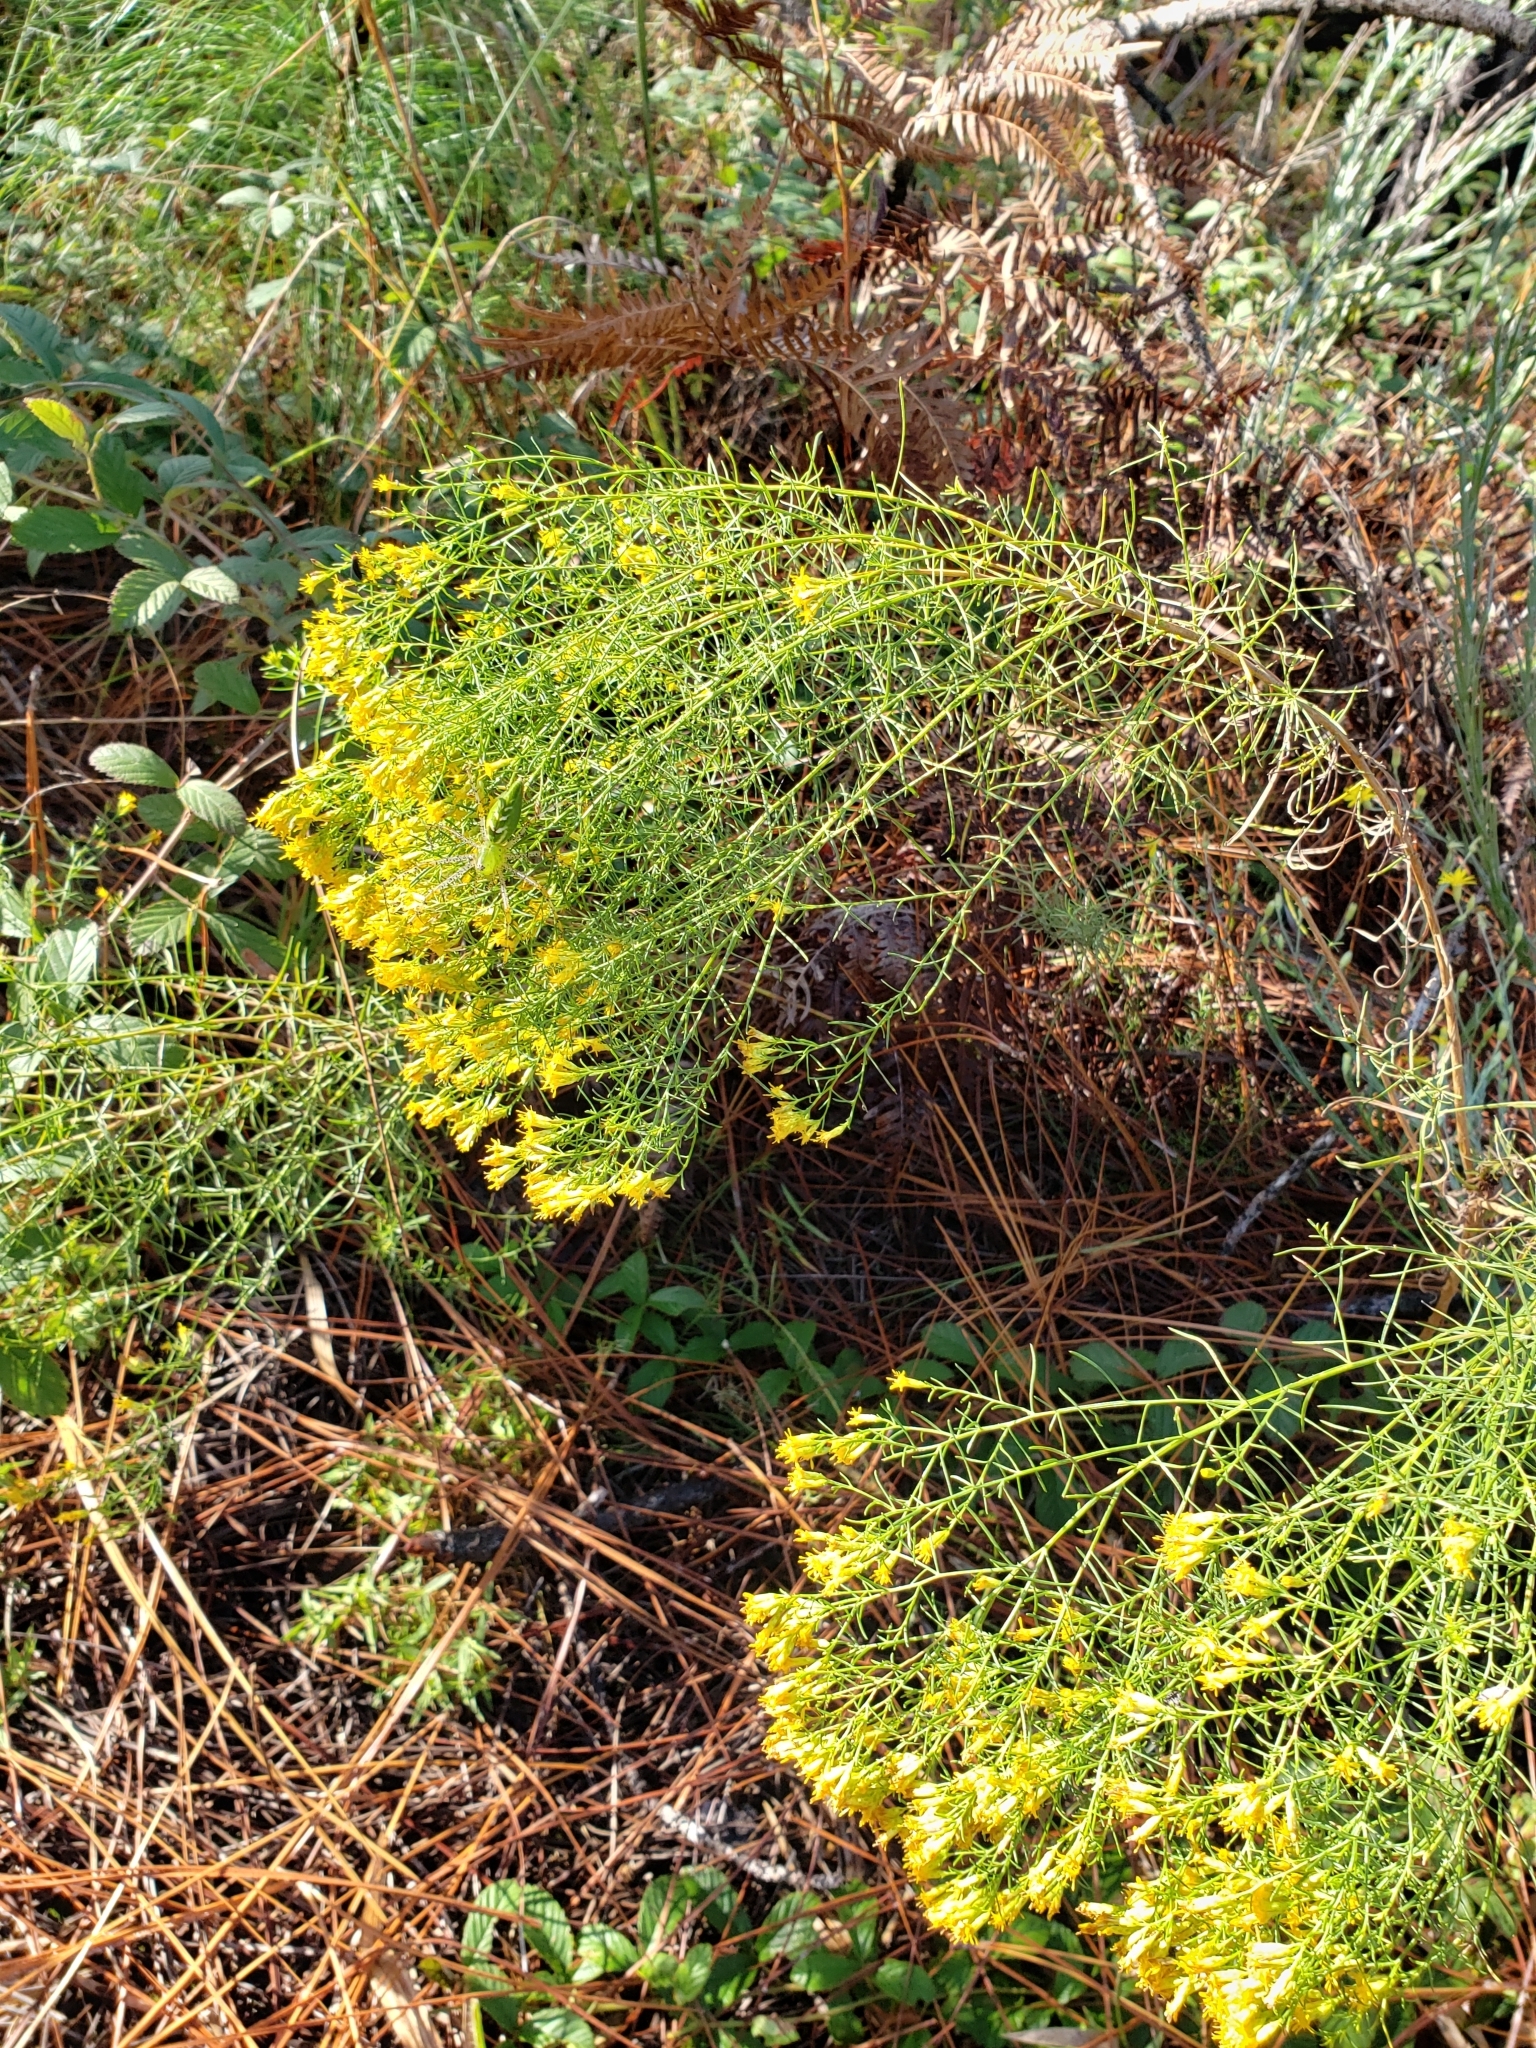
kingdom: Plantae
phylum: Tracheophyta
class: Magnoliopsida
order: Asterales
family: Asteraceae
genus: Euthamia
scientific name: Euthamia caroliniana
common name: Coastal plain goldentop
